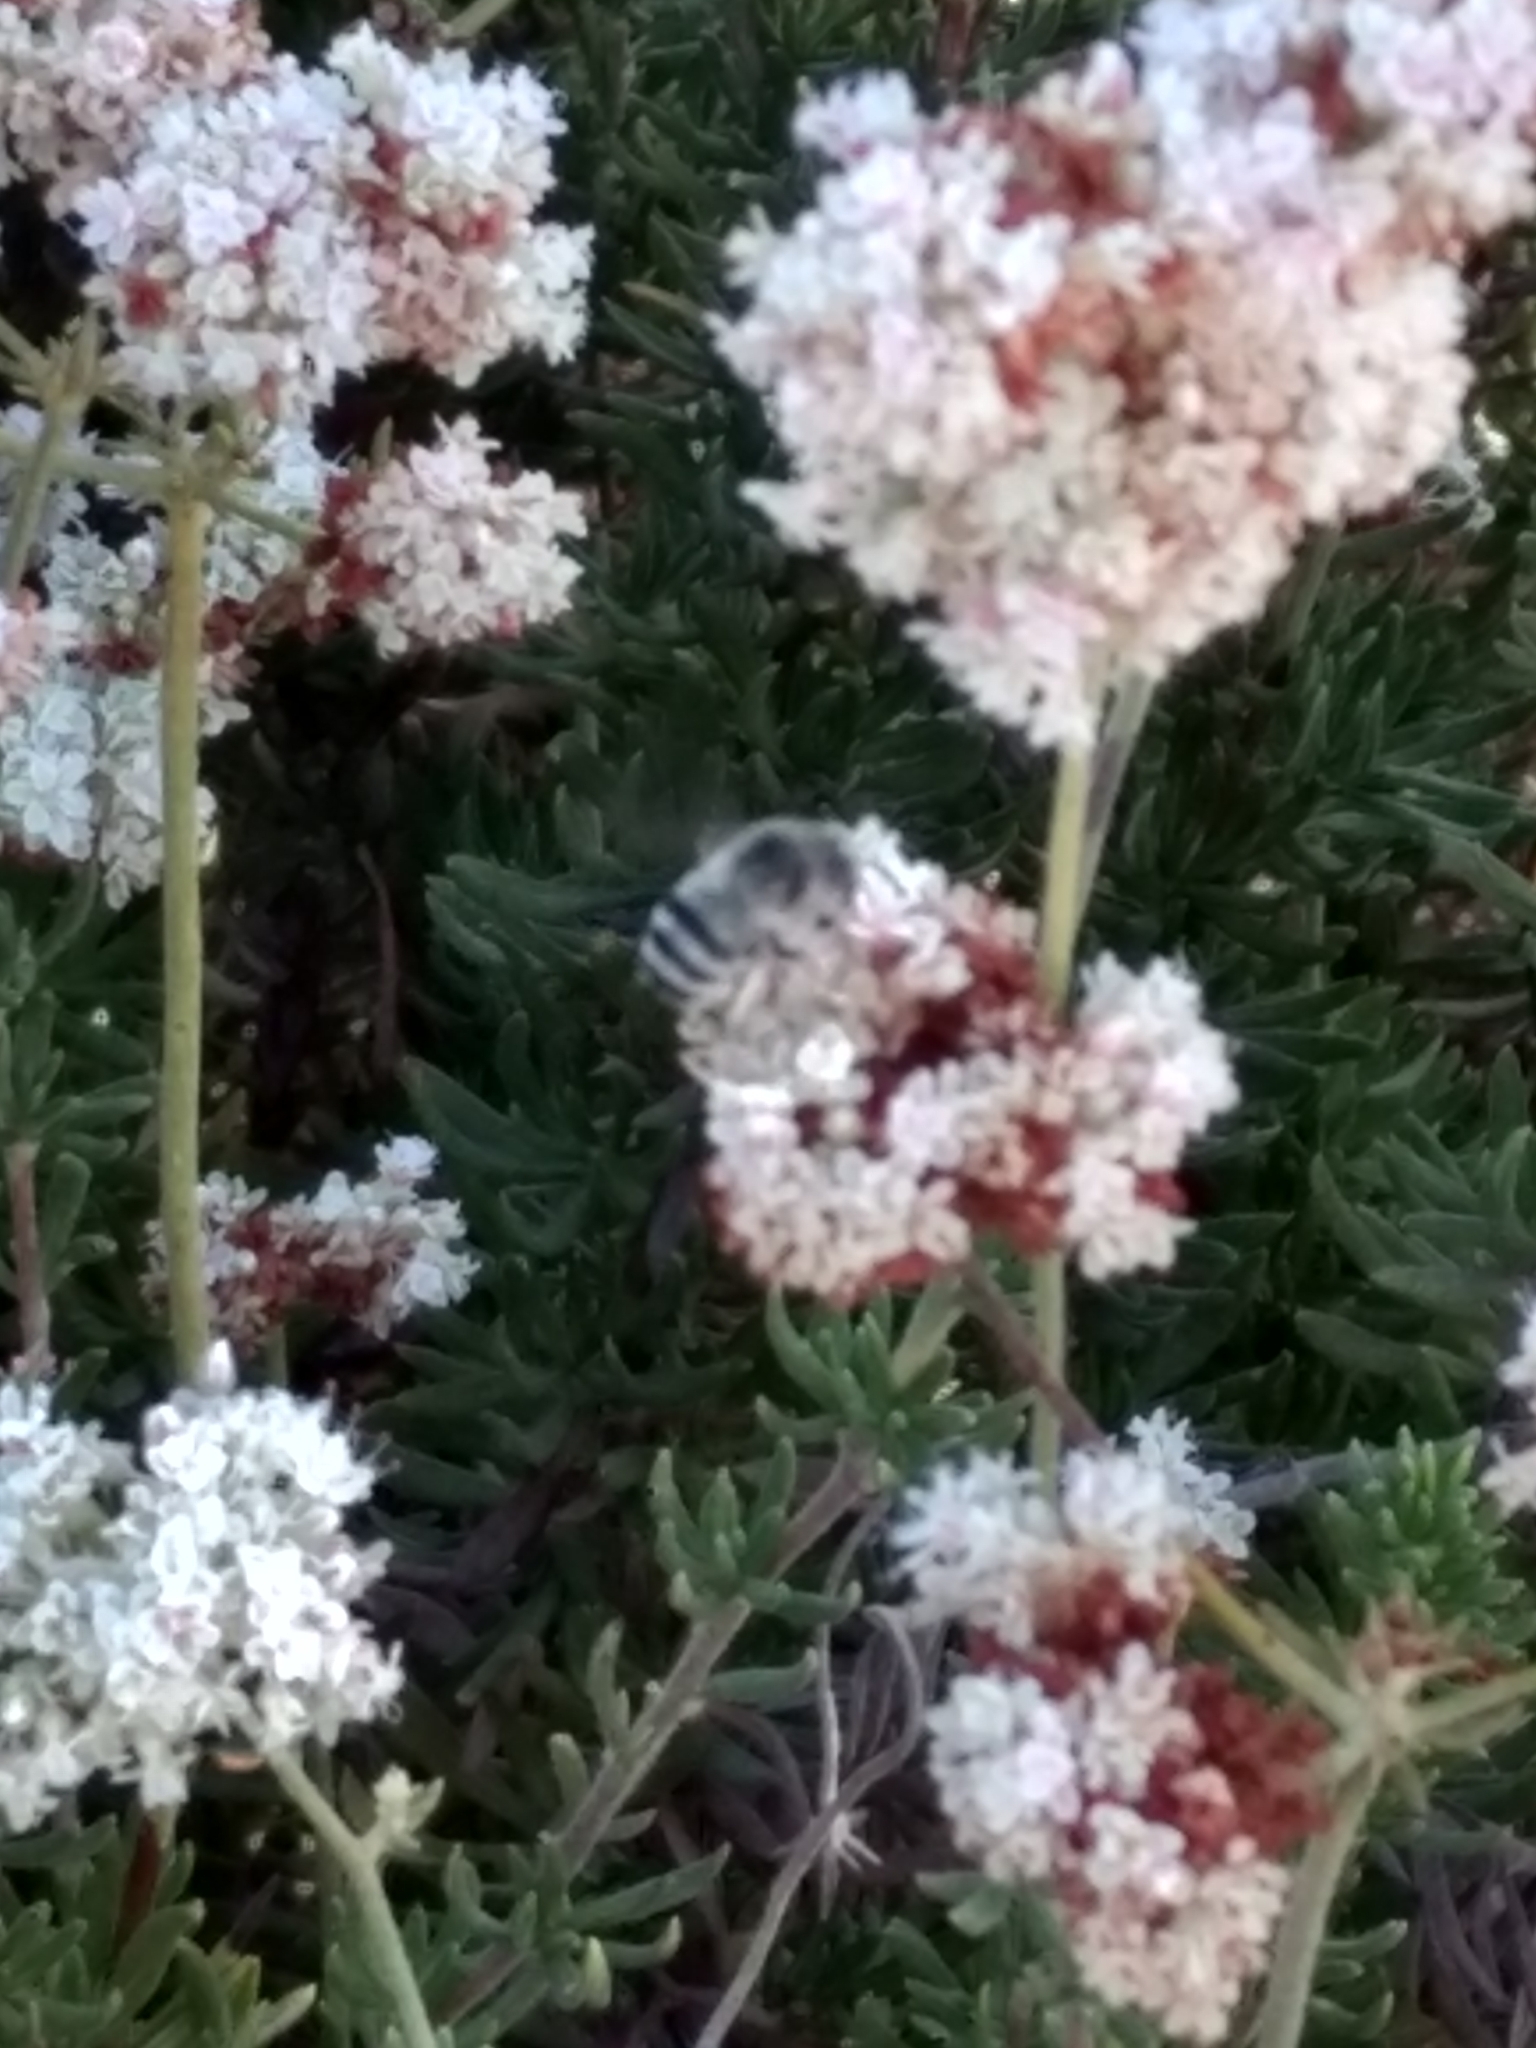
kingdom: Animalia
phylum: Arthropoda
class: Insecta
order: Hymenoptera
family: Apidae
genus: Anthophora
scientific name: Anthophora urbana
